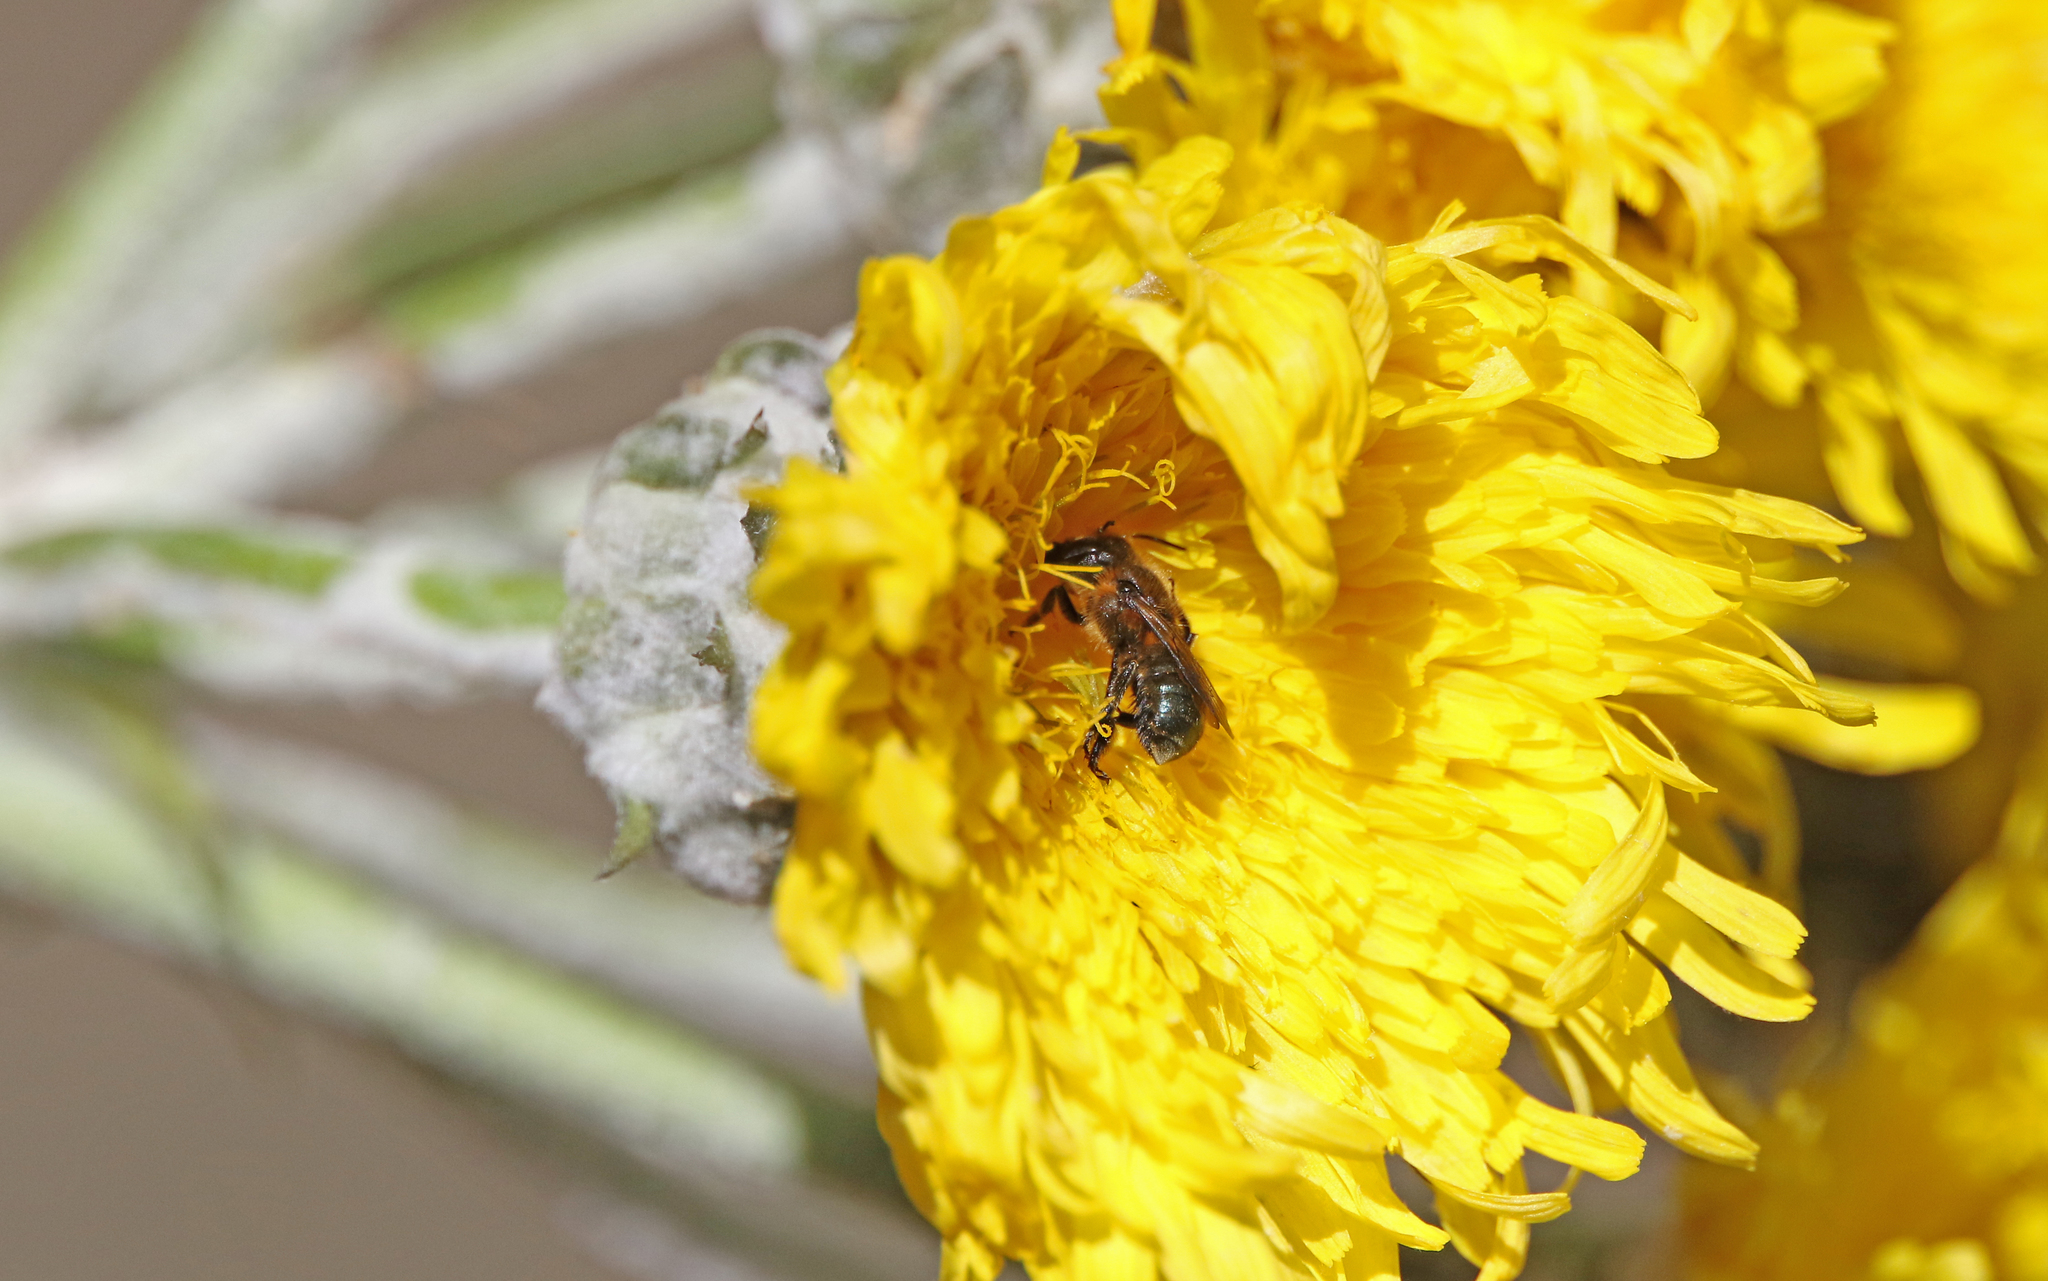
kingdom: Animalia
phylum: Arthropoda
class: Insecta
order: Hymenoptera
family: Megachilidae
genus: Osmia
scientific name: Osmia latreillei
